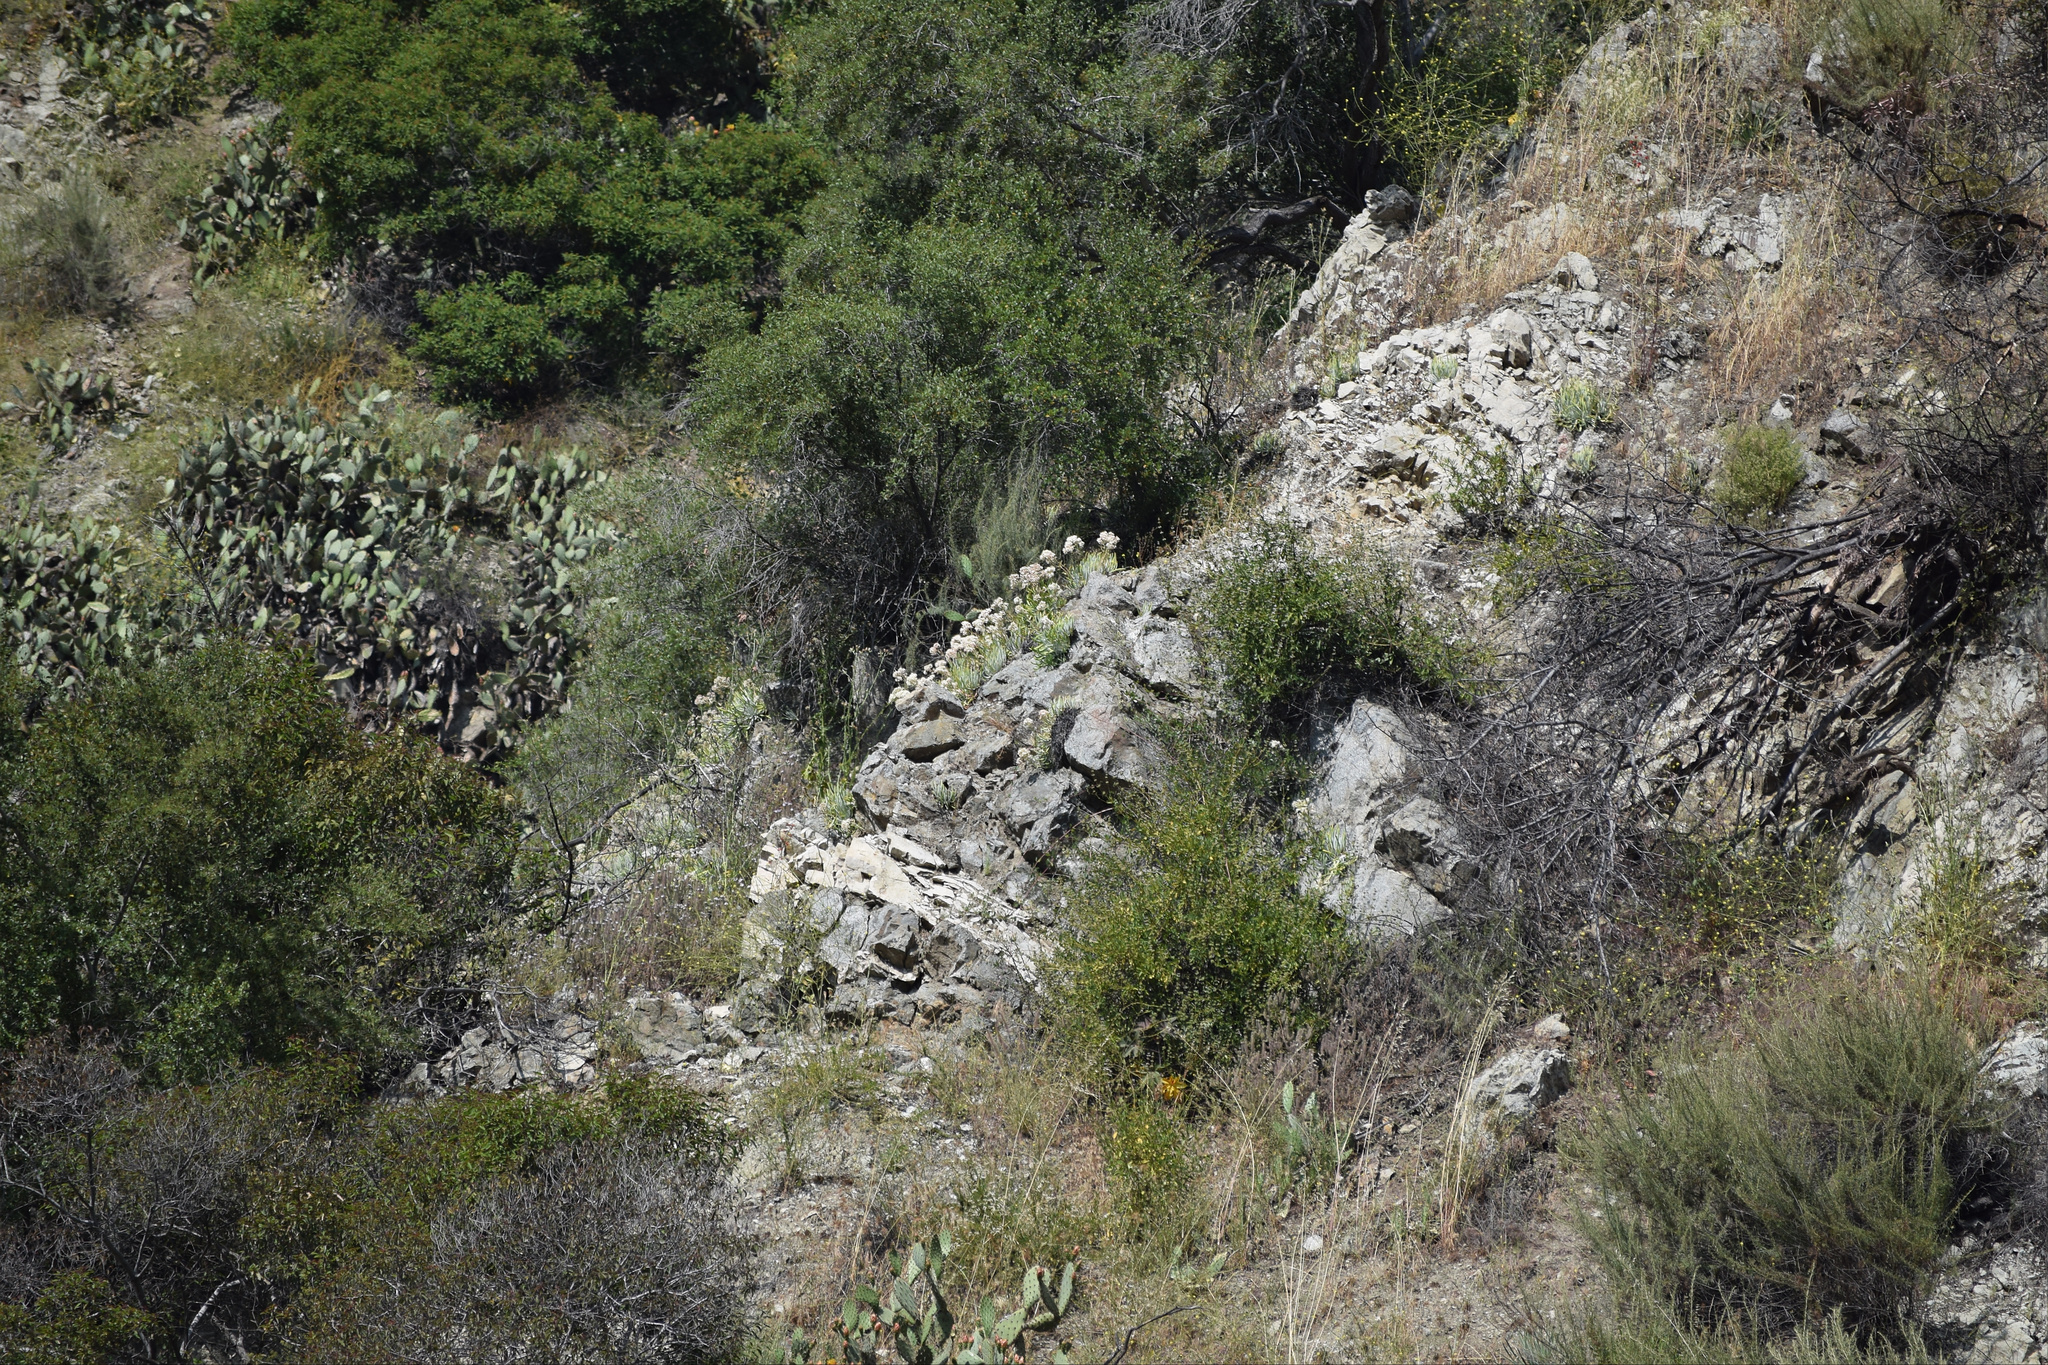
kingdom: Plantae
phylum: Tracheophyta
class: Magnoliopsida
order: Saxifragales
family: Crassulaceae
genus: Dudleya
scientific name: Dudleya densiflora
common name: San gabriel mountains dudleya
